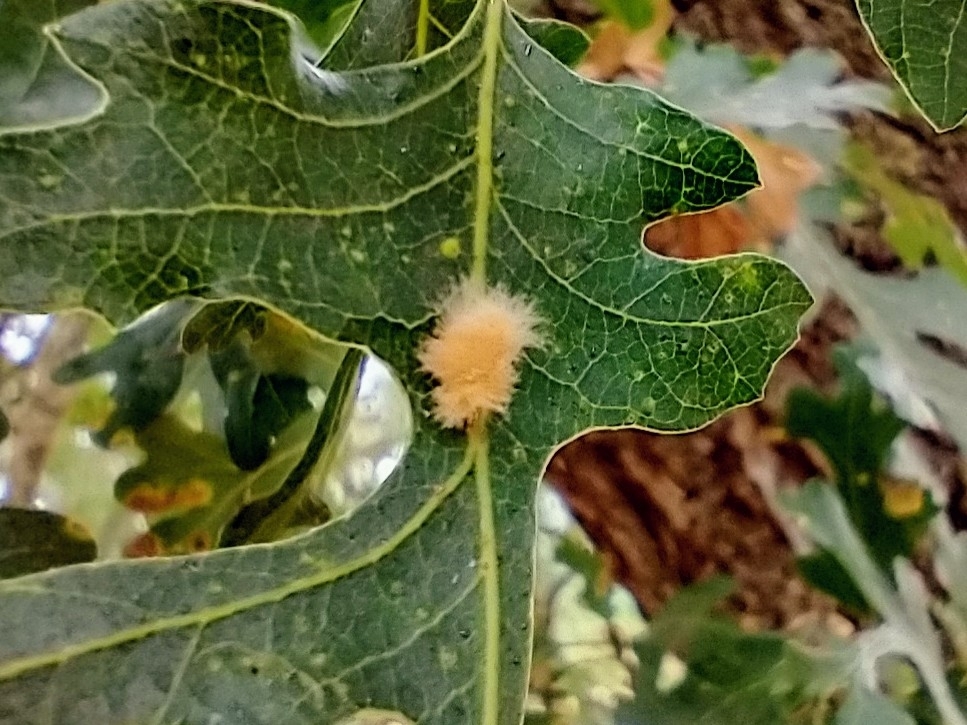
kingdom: Animalia
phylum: Arthropoda
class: Insecta
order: Hymenoptera
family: Cynipidae
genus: Andricus
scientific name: Andricus Druon fullawayi
